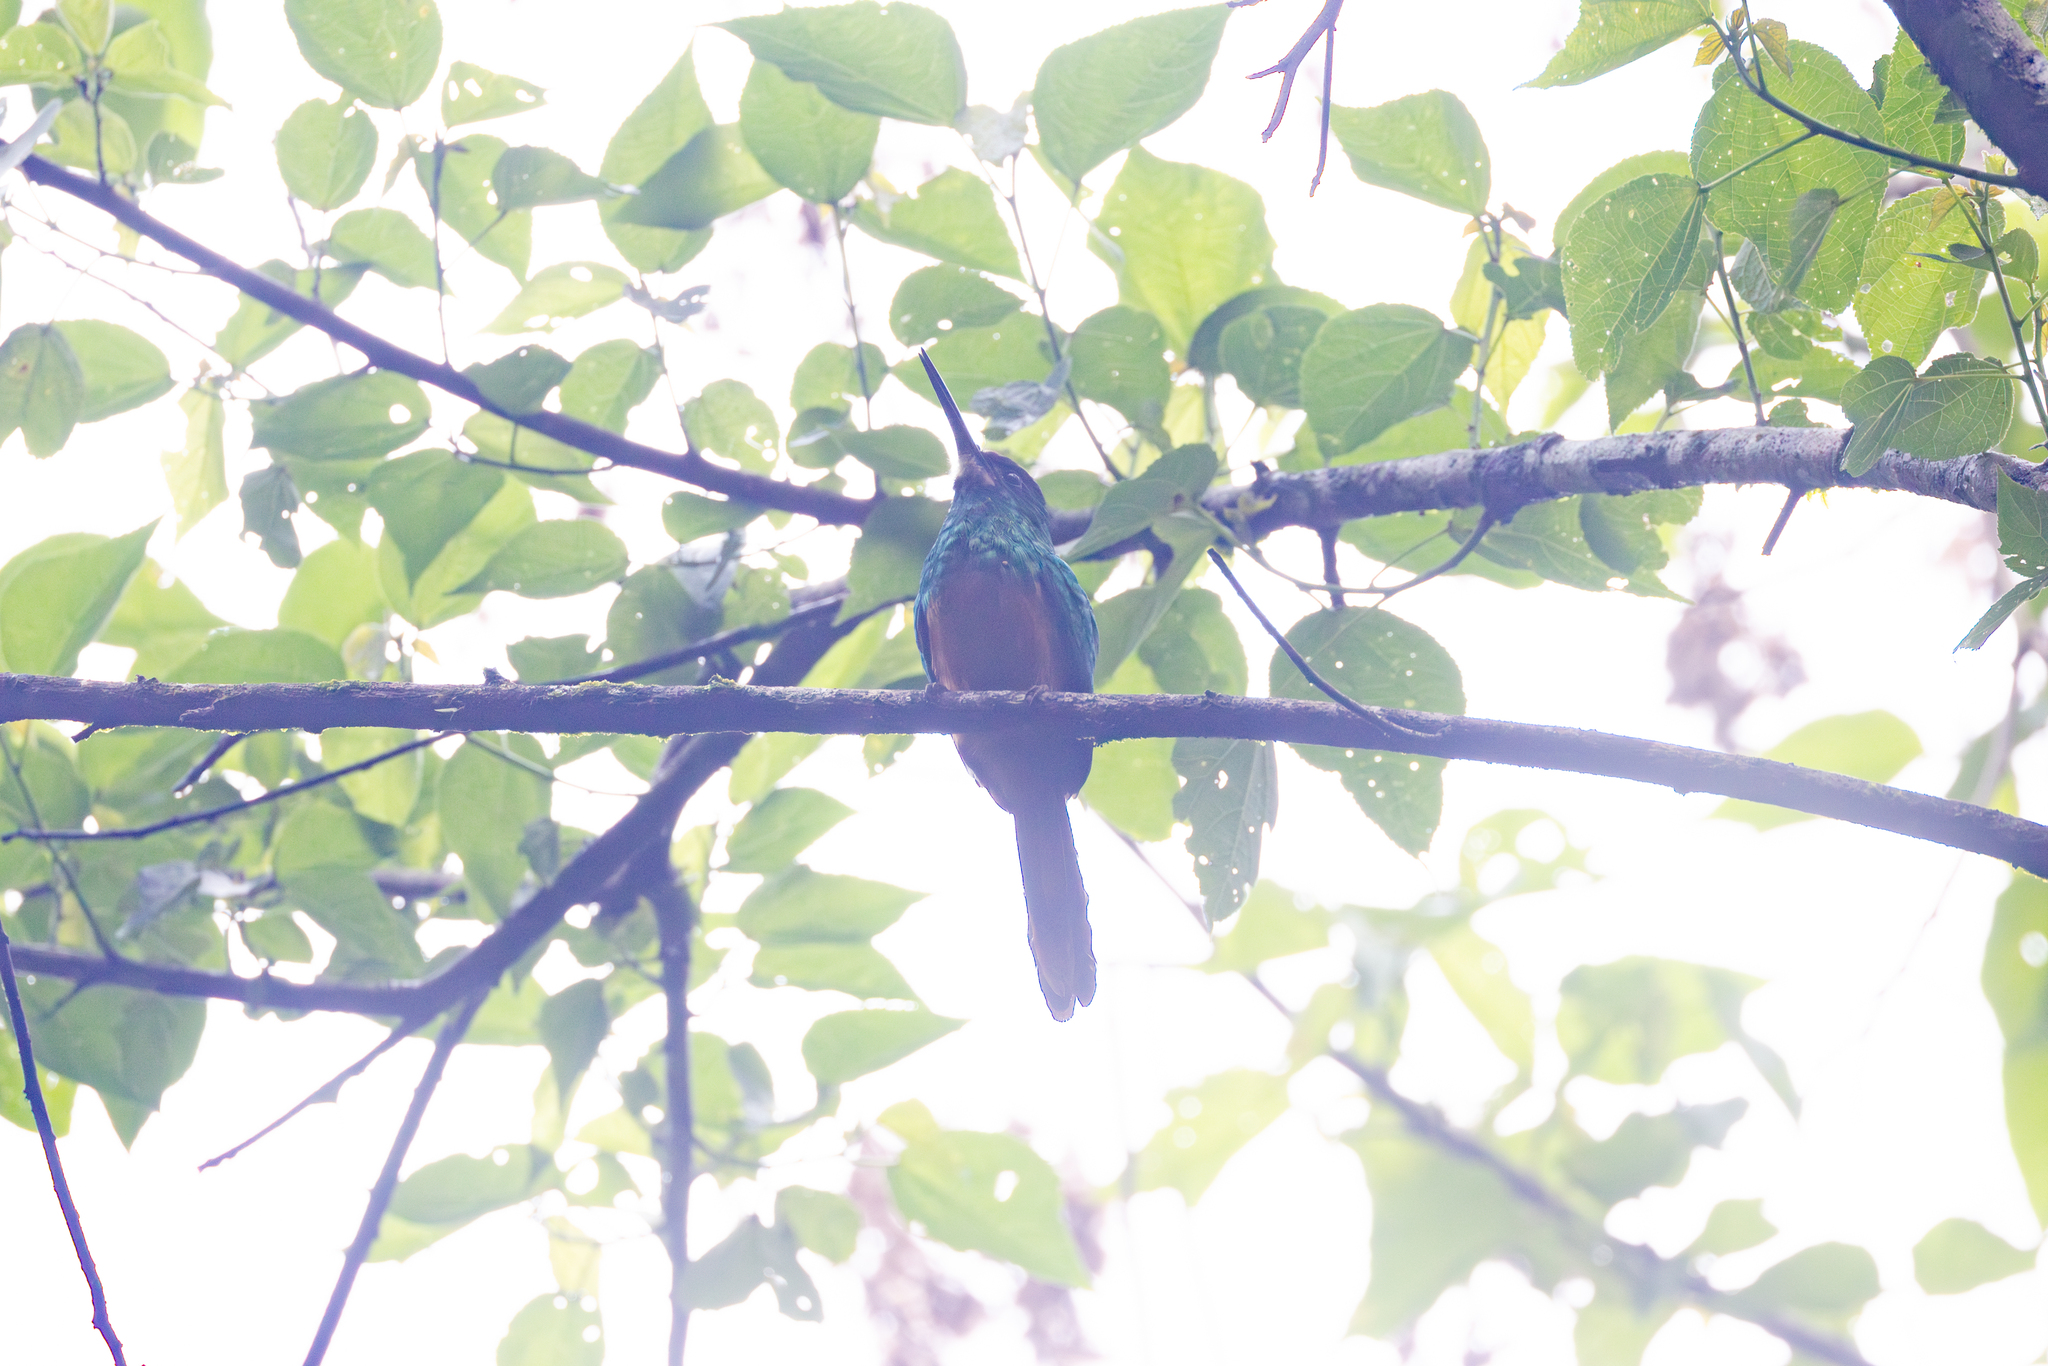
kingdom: Animalia
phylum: Chordata
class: Aves
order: Piciformes
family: Galbulidae
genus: Galbula
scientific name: Galbula tombacea
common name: White-chinned jacamar
